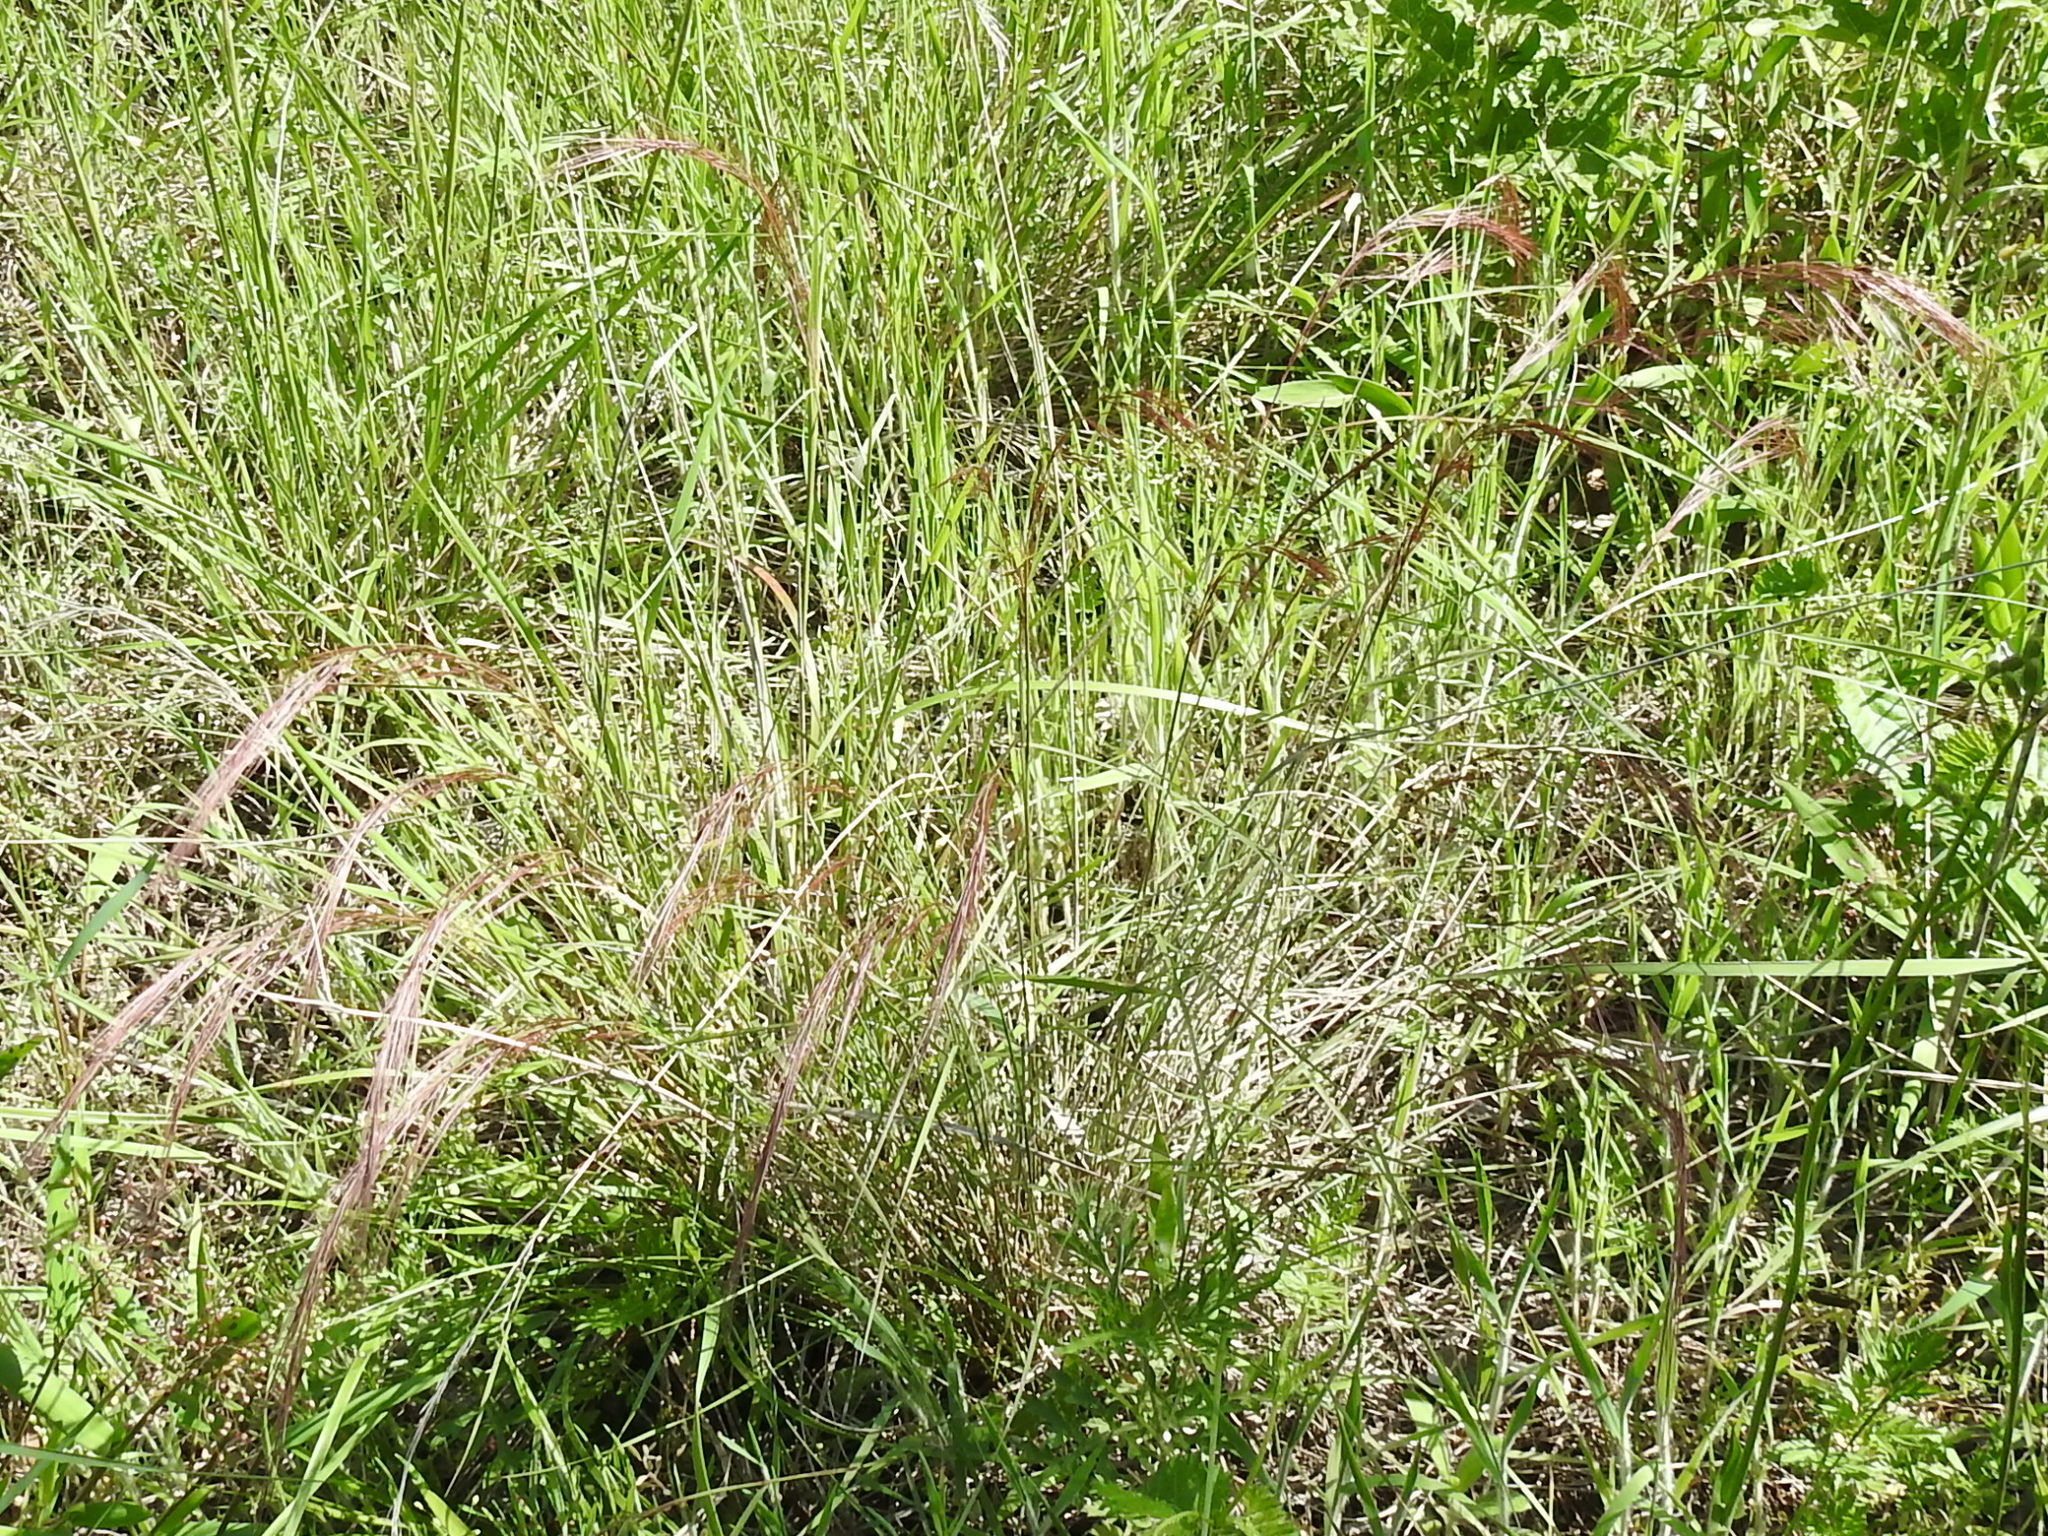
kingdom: Plantae
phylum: Tracheophyta
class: Liliopsida
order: Poales
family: Poaceae
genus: Aristida
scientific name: Aristida purpurea
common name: Purple threeawn
